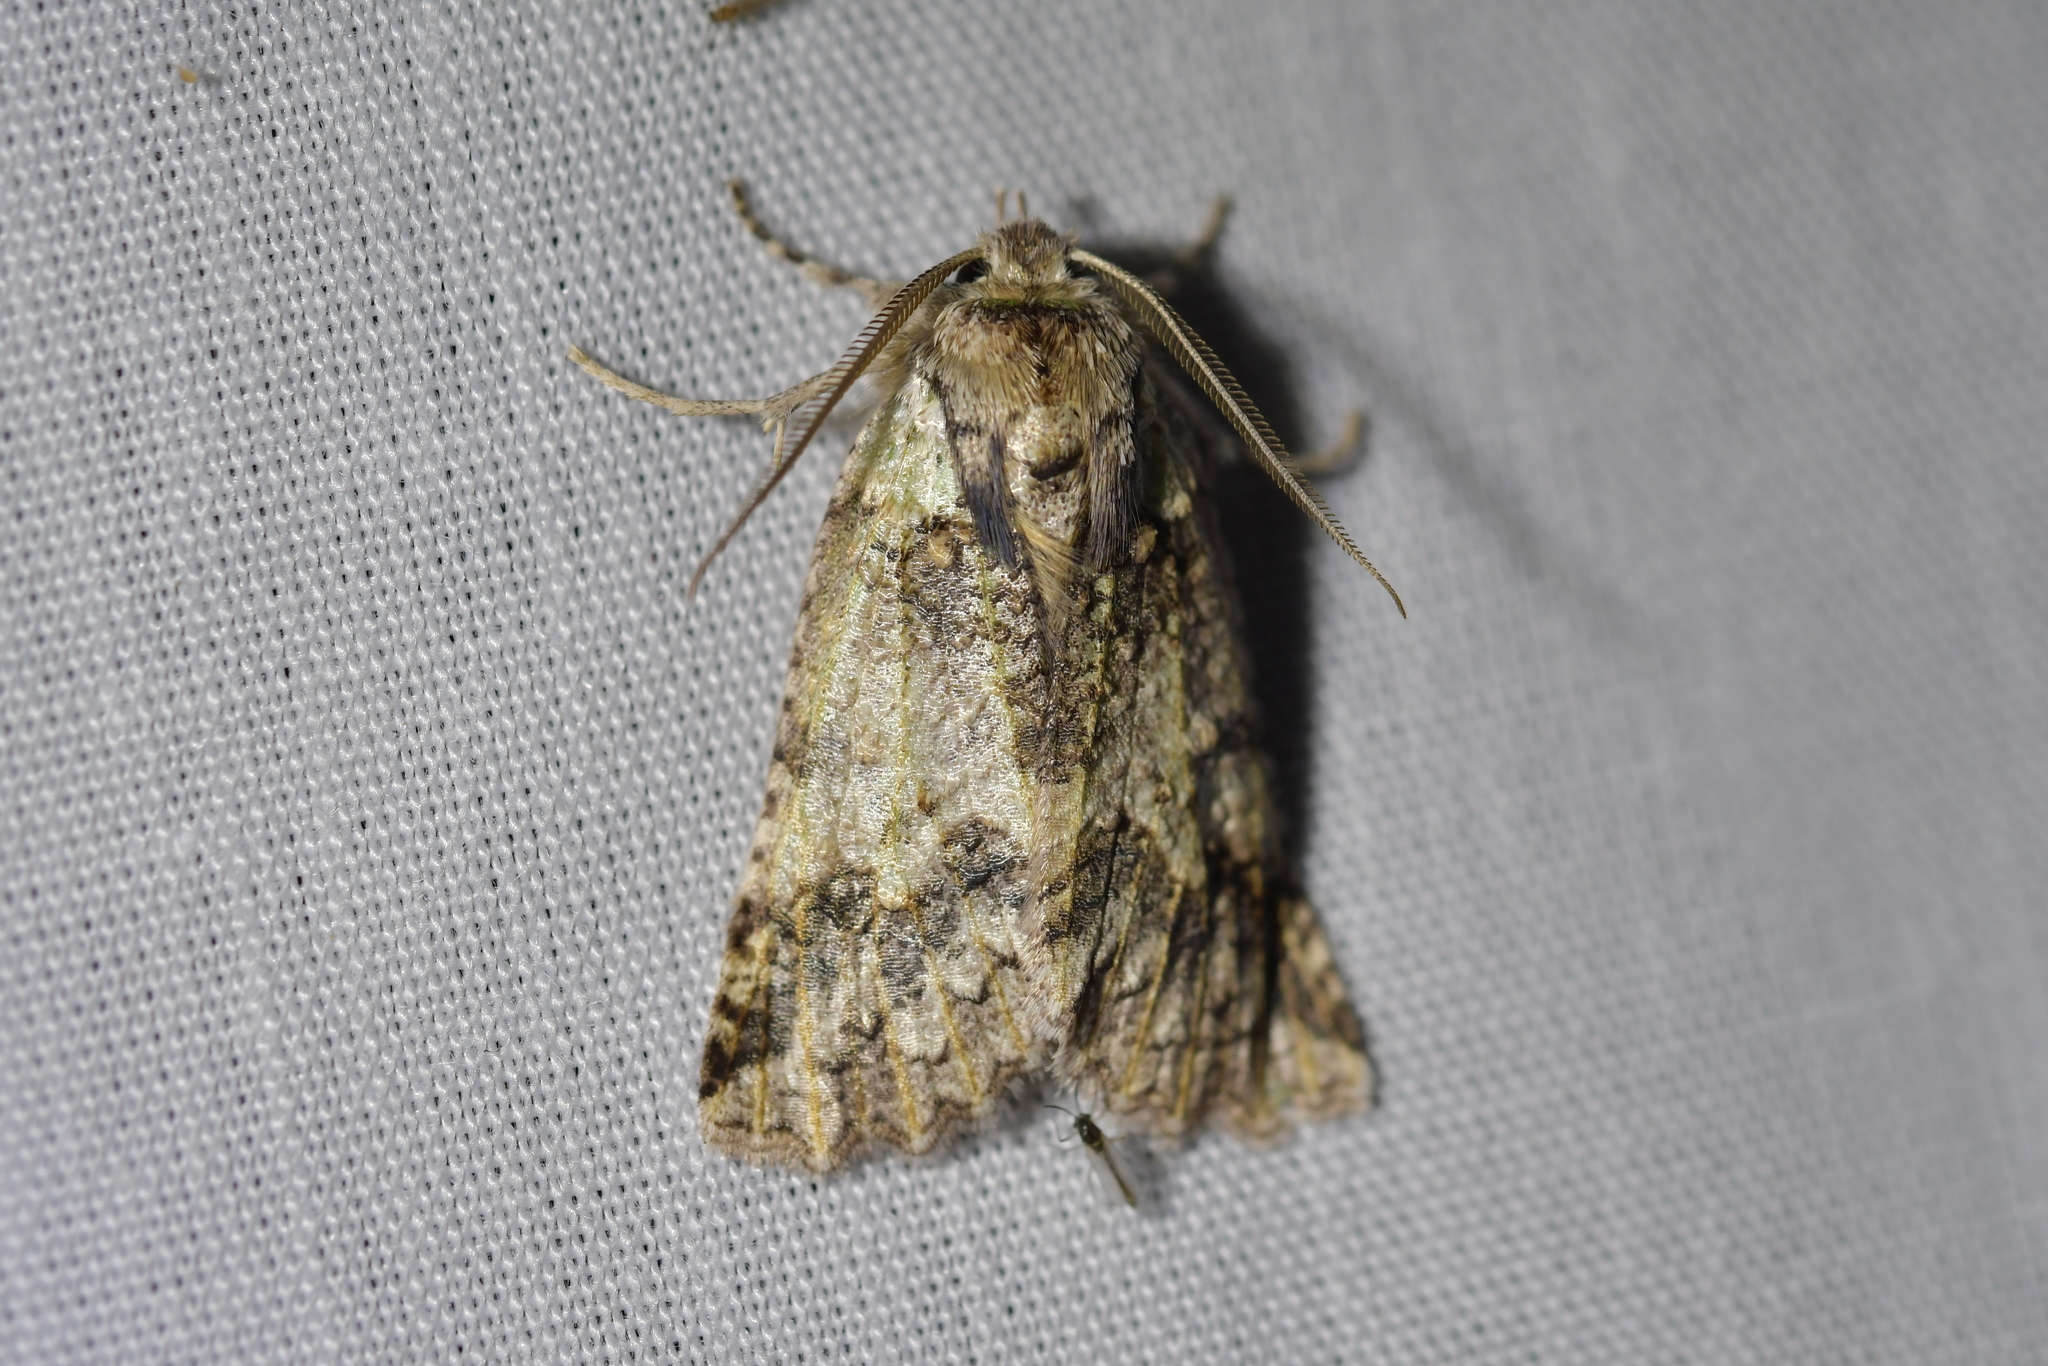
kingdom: Animalia
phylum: Arthropoda
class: Insecta
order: Lepidoptera
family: Geometridae
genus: Declana
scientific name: Declana floccosa
